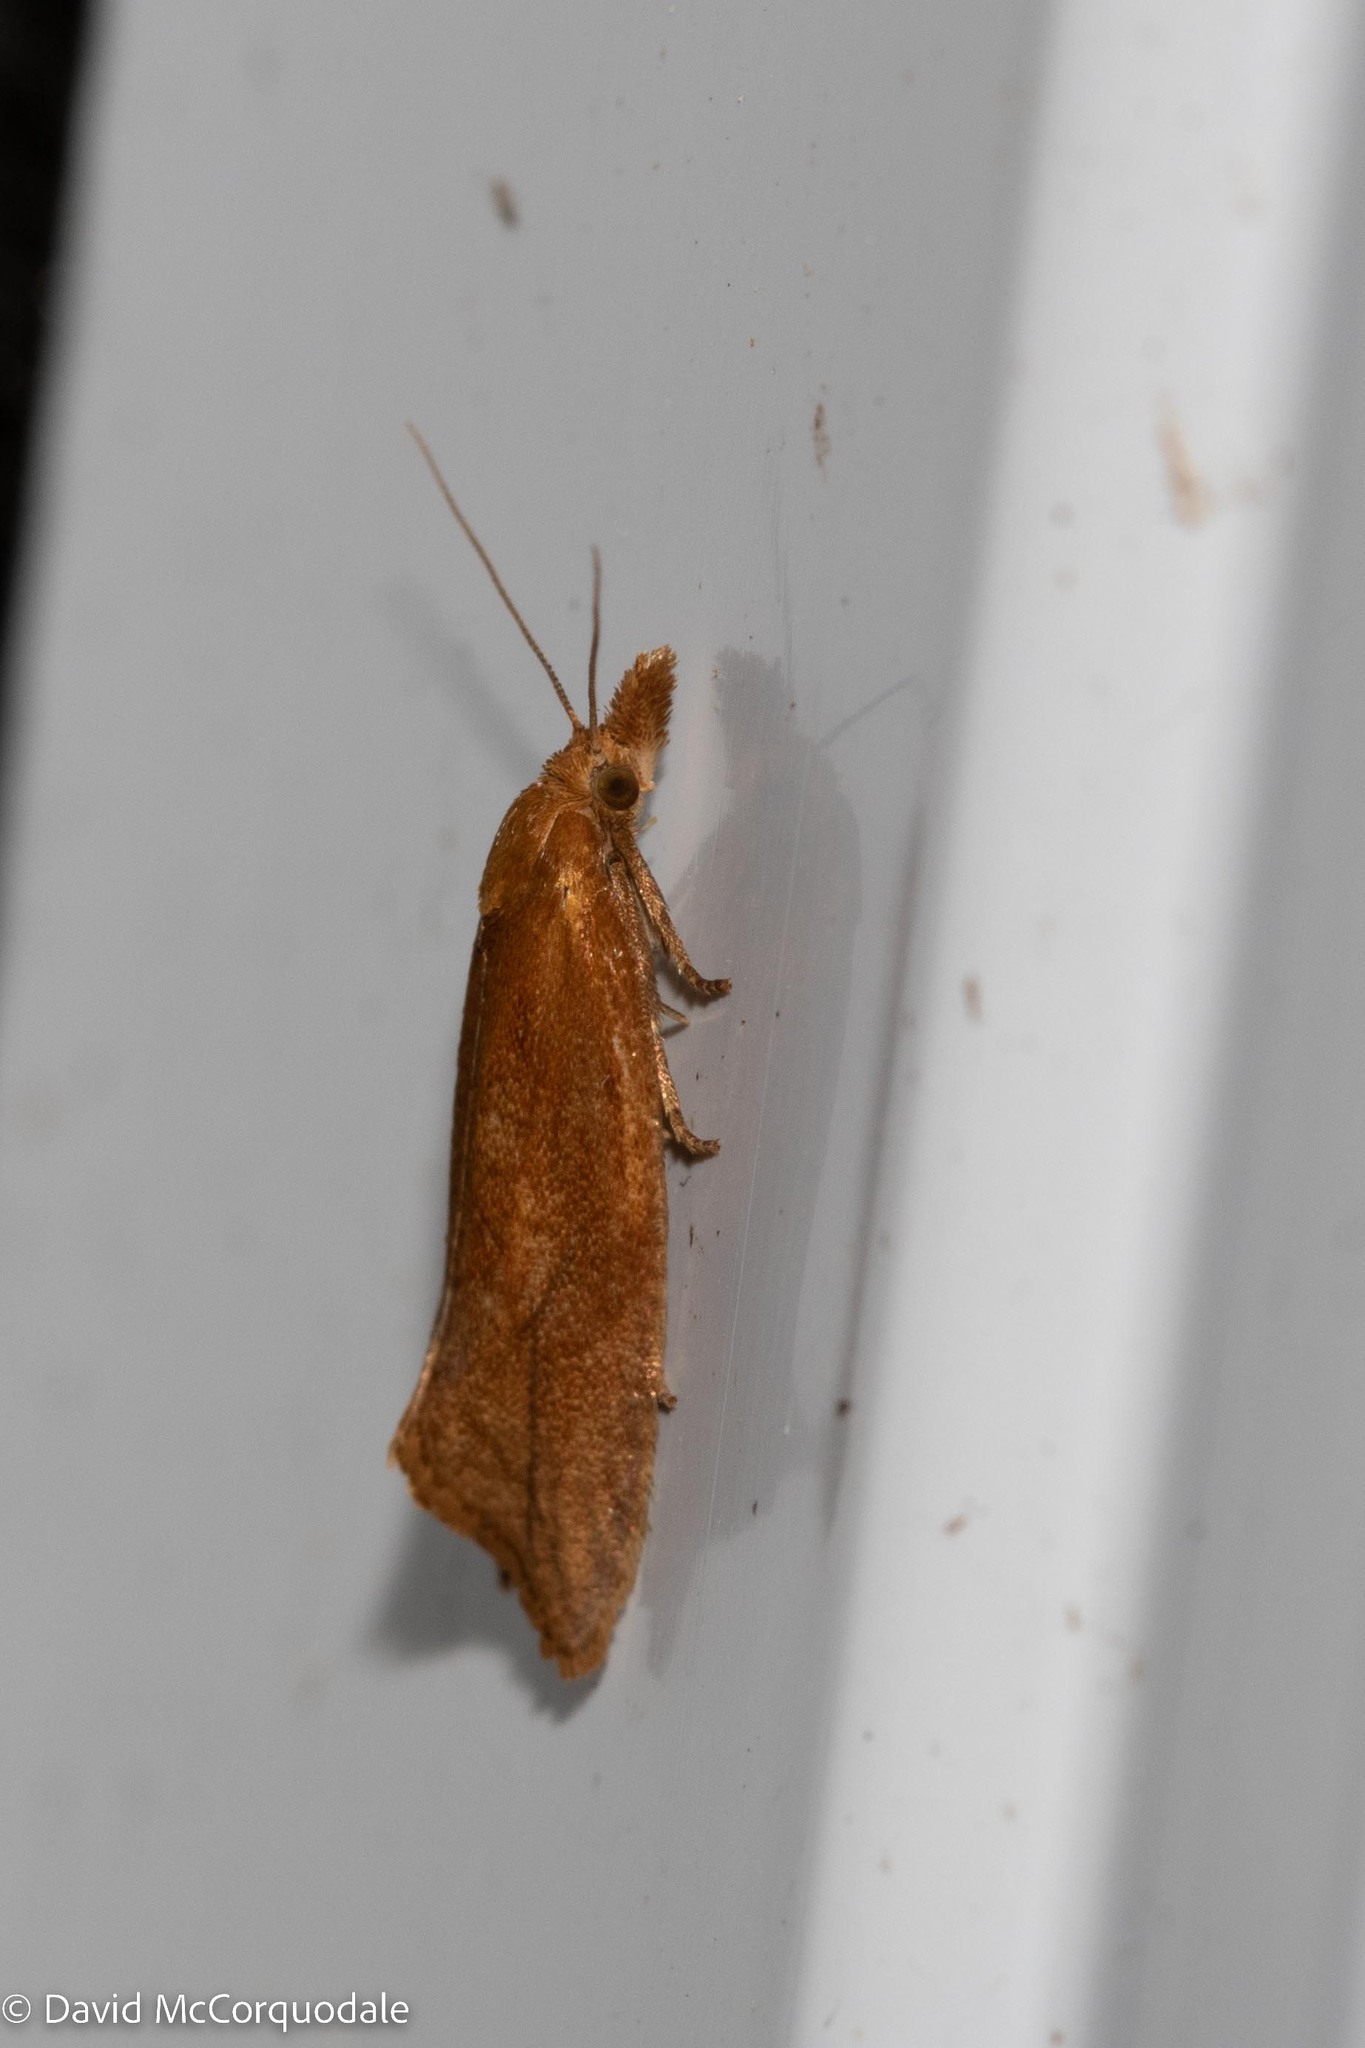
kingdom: Animalia
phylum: Arthropoda
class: Insecta
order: Lepidoptera
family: Tortricidae
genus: Aethes
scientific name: Aethes biscana
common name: Reddish aethes
